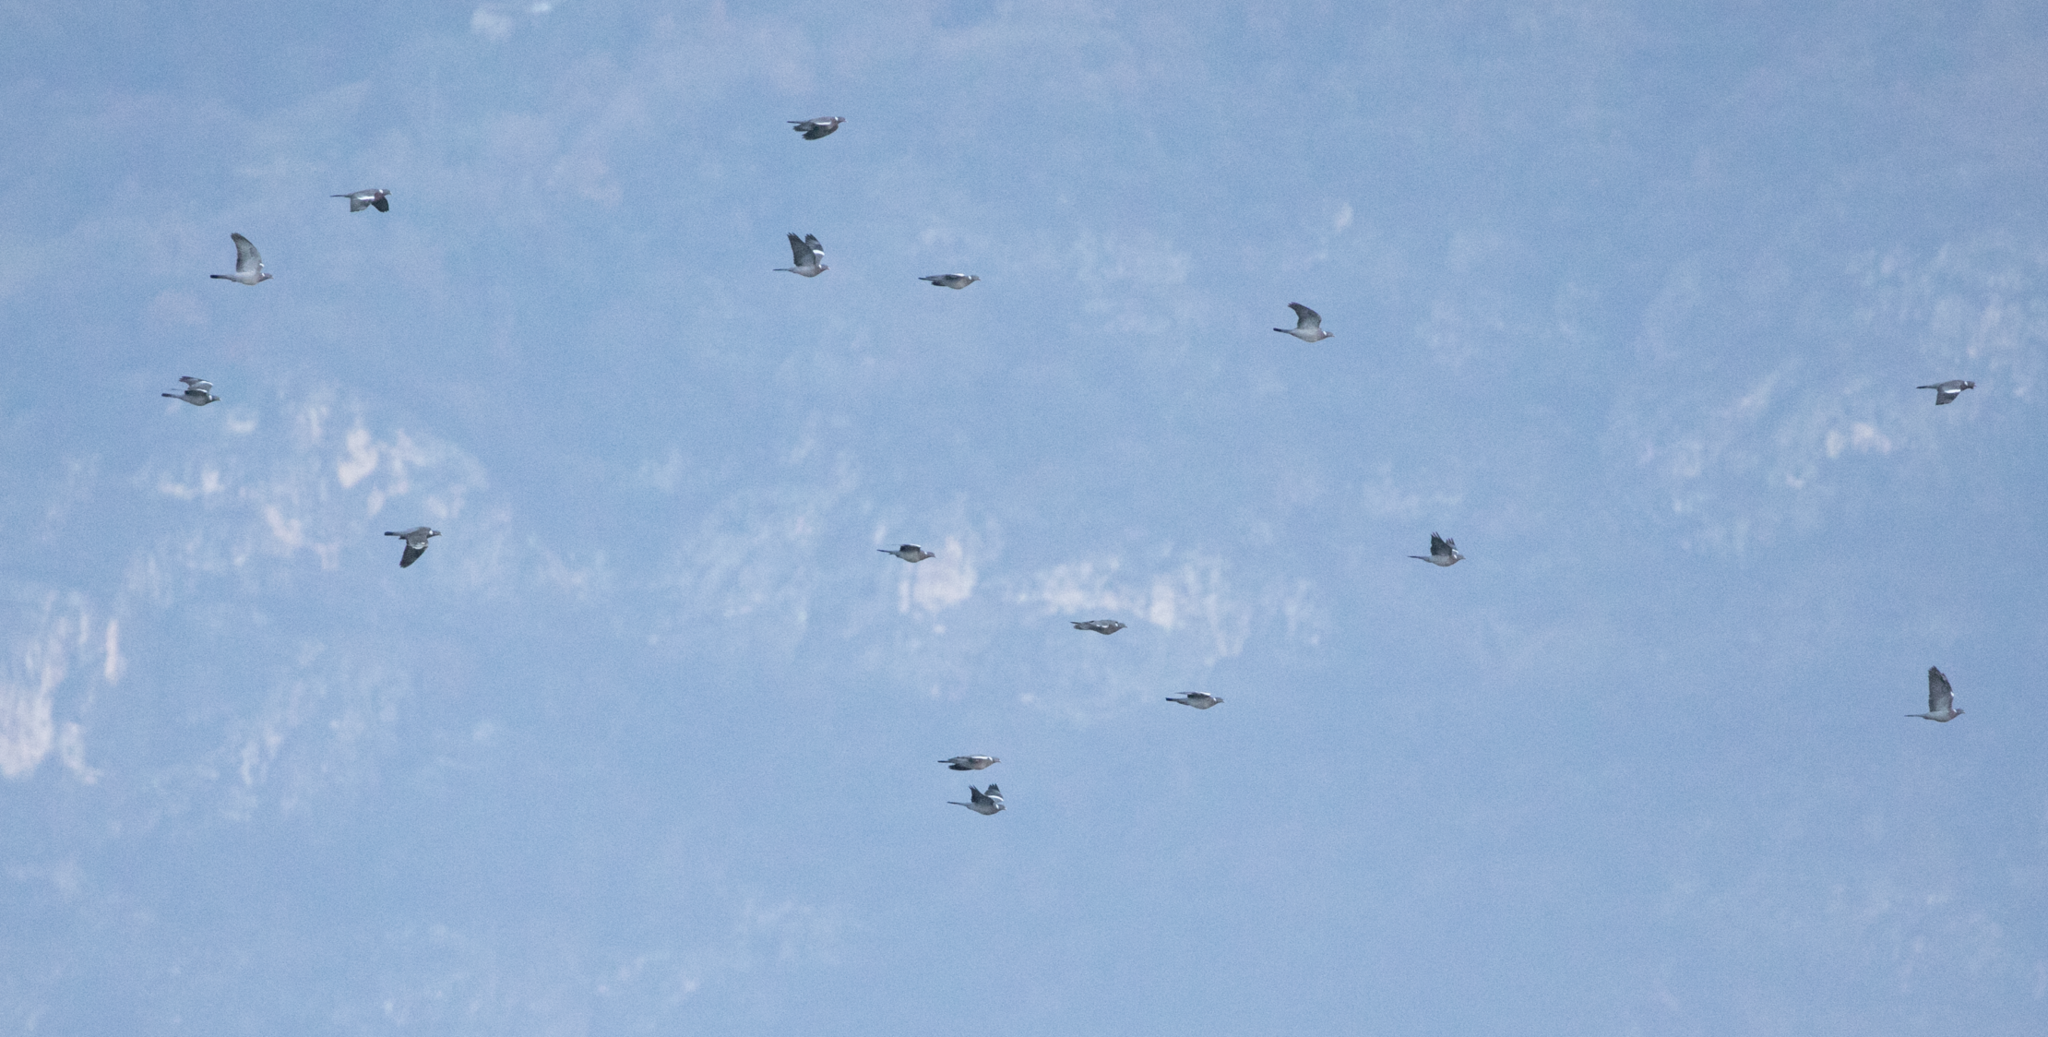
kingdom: Animalia
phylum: Chordata
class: Aves
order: Columbiformes
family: Columbidae
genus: Columba
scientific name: Columba palumbus
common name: Common wood pigeon
